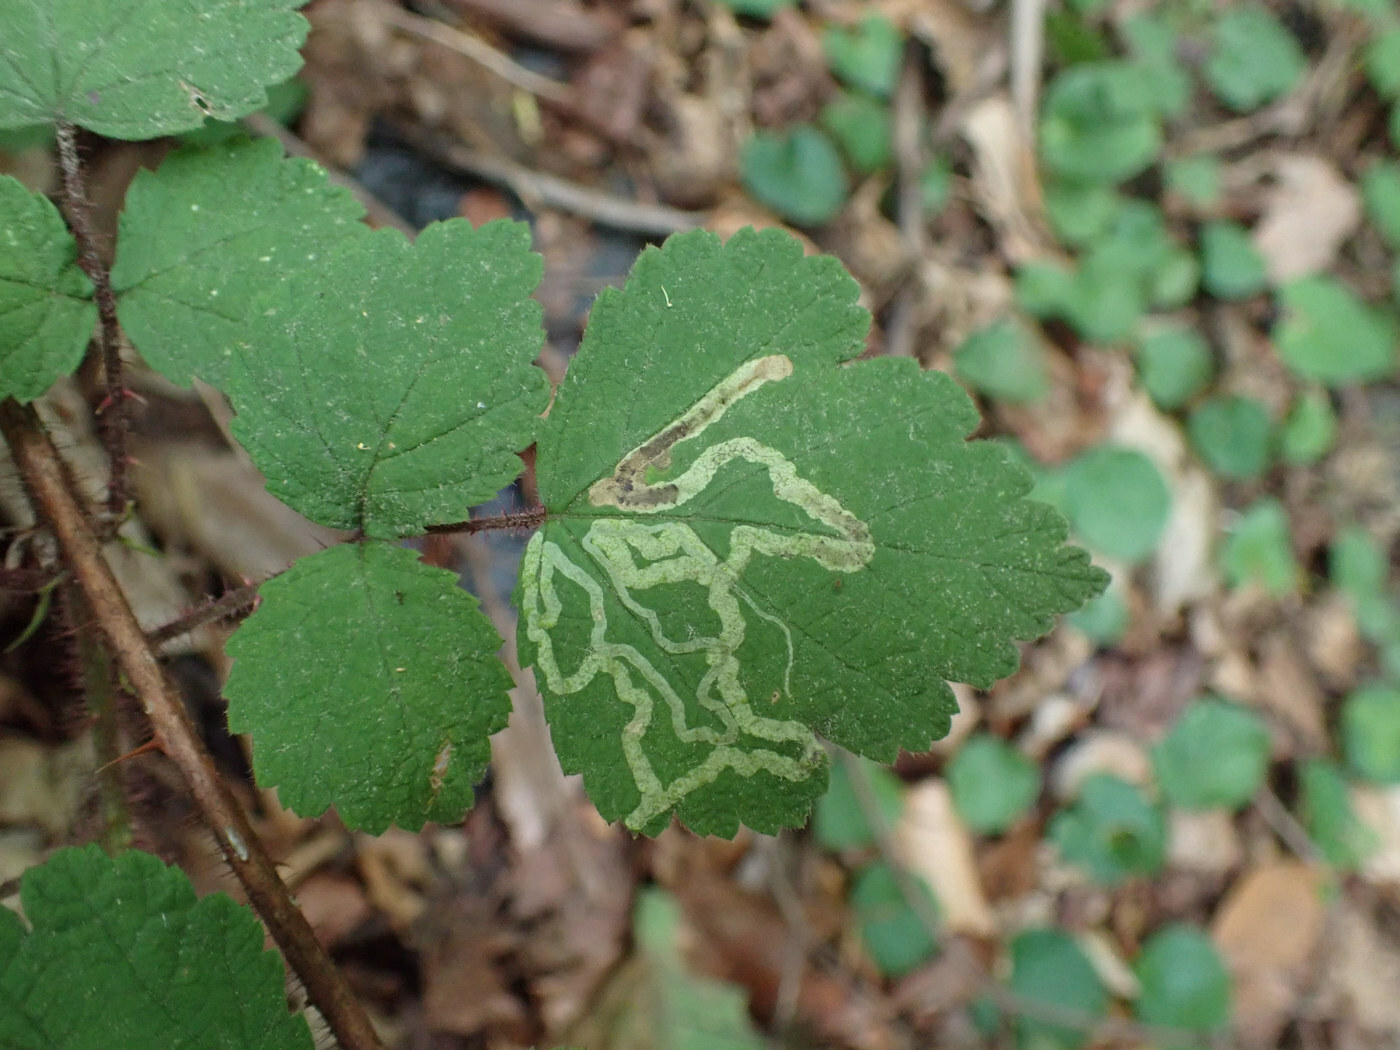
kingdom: Animalia
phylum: Arthropoda
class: Insecta
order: Diptera
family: Agromyzidae
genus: Agromyza
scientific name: Agromyza vockerothi
